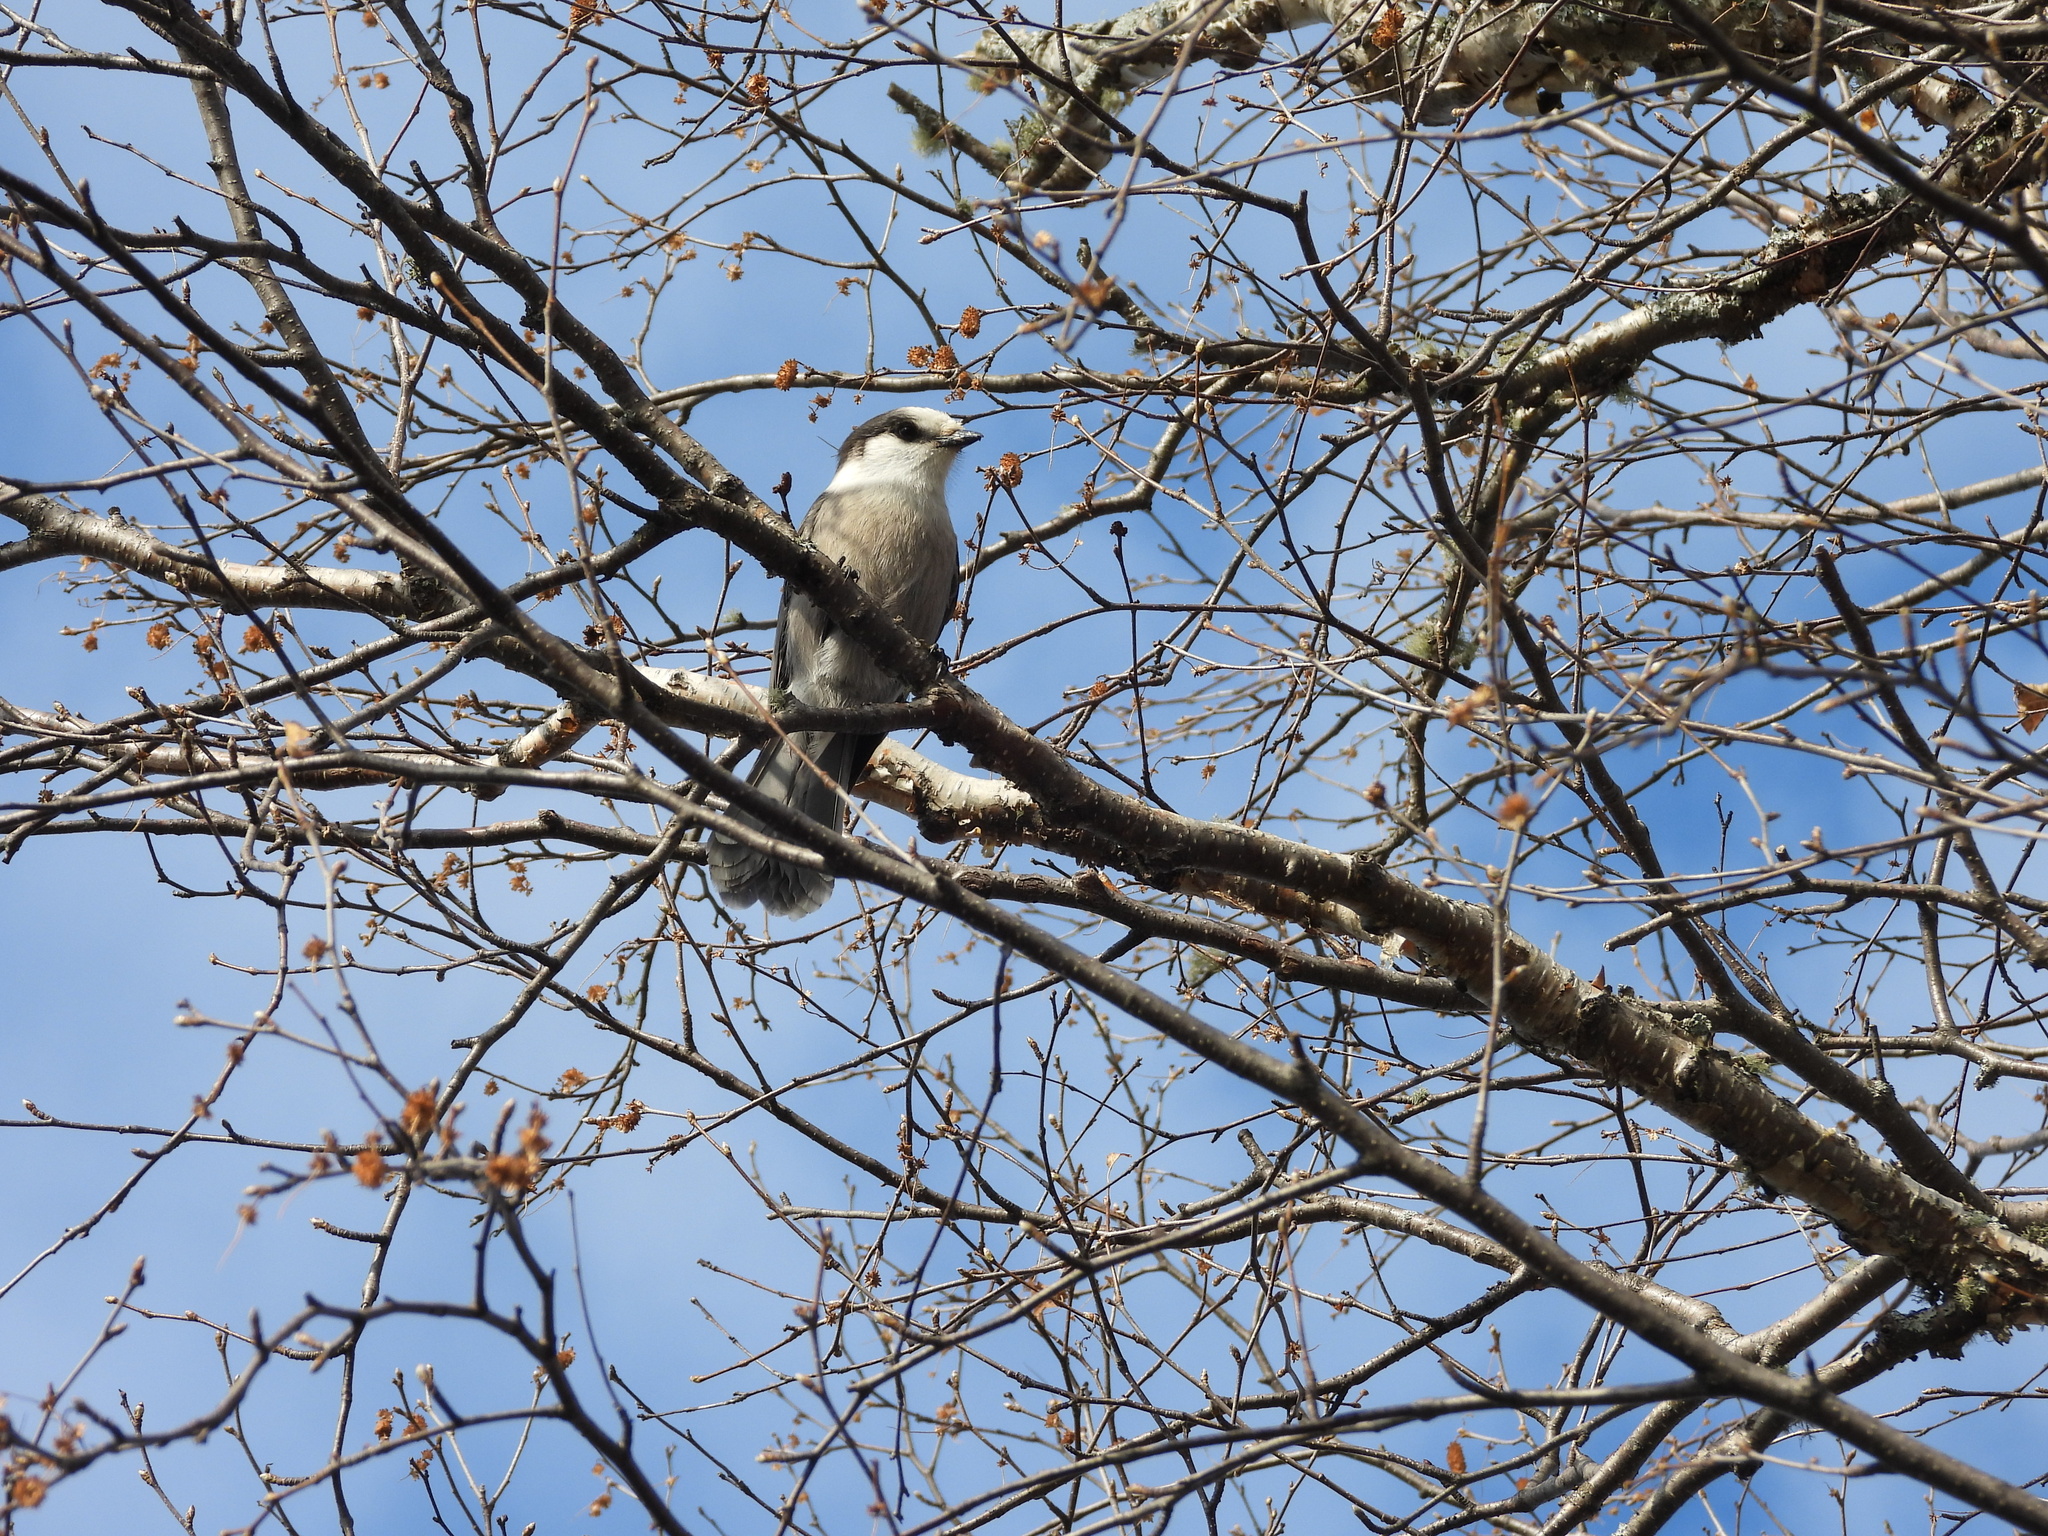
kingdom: Animalia
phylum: Chordata
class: Aves
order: Passeriformes
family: Corvidae
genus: Perisoreus
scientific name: Perisoreus canadensis
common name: Gray jay
